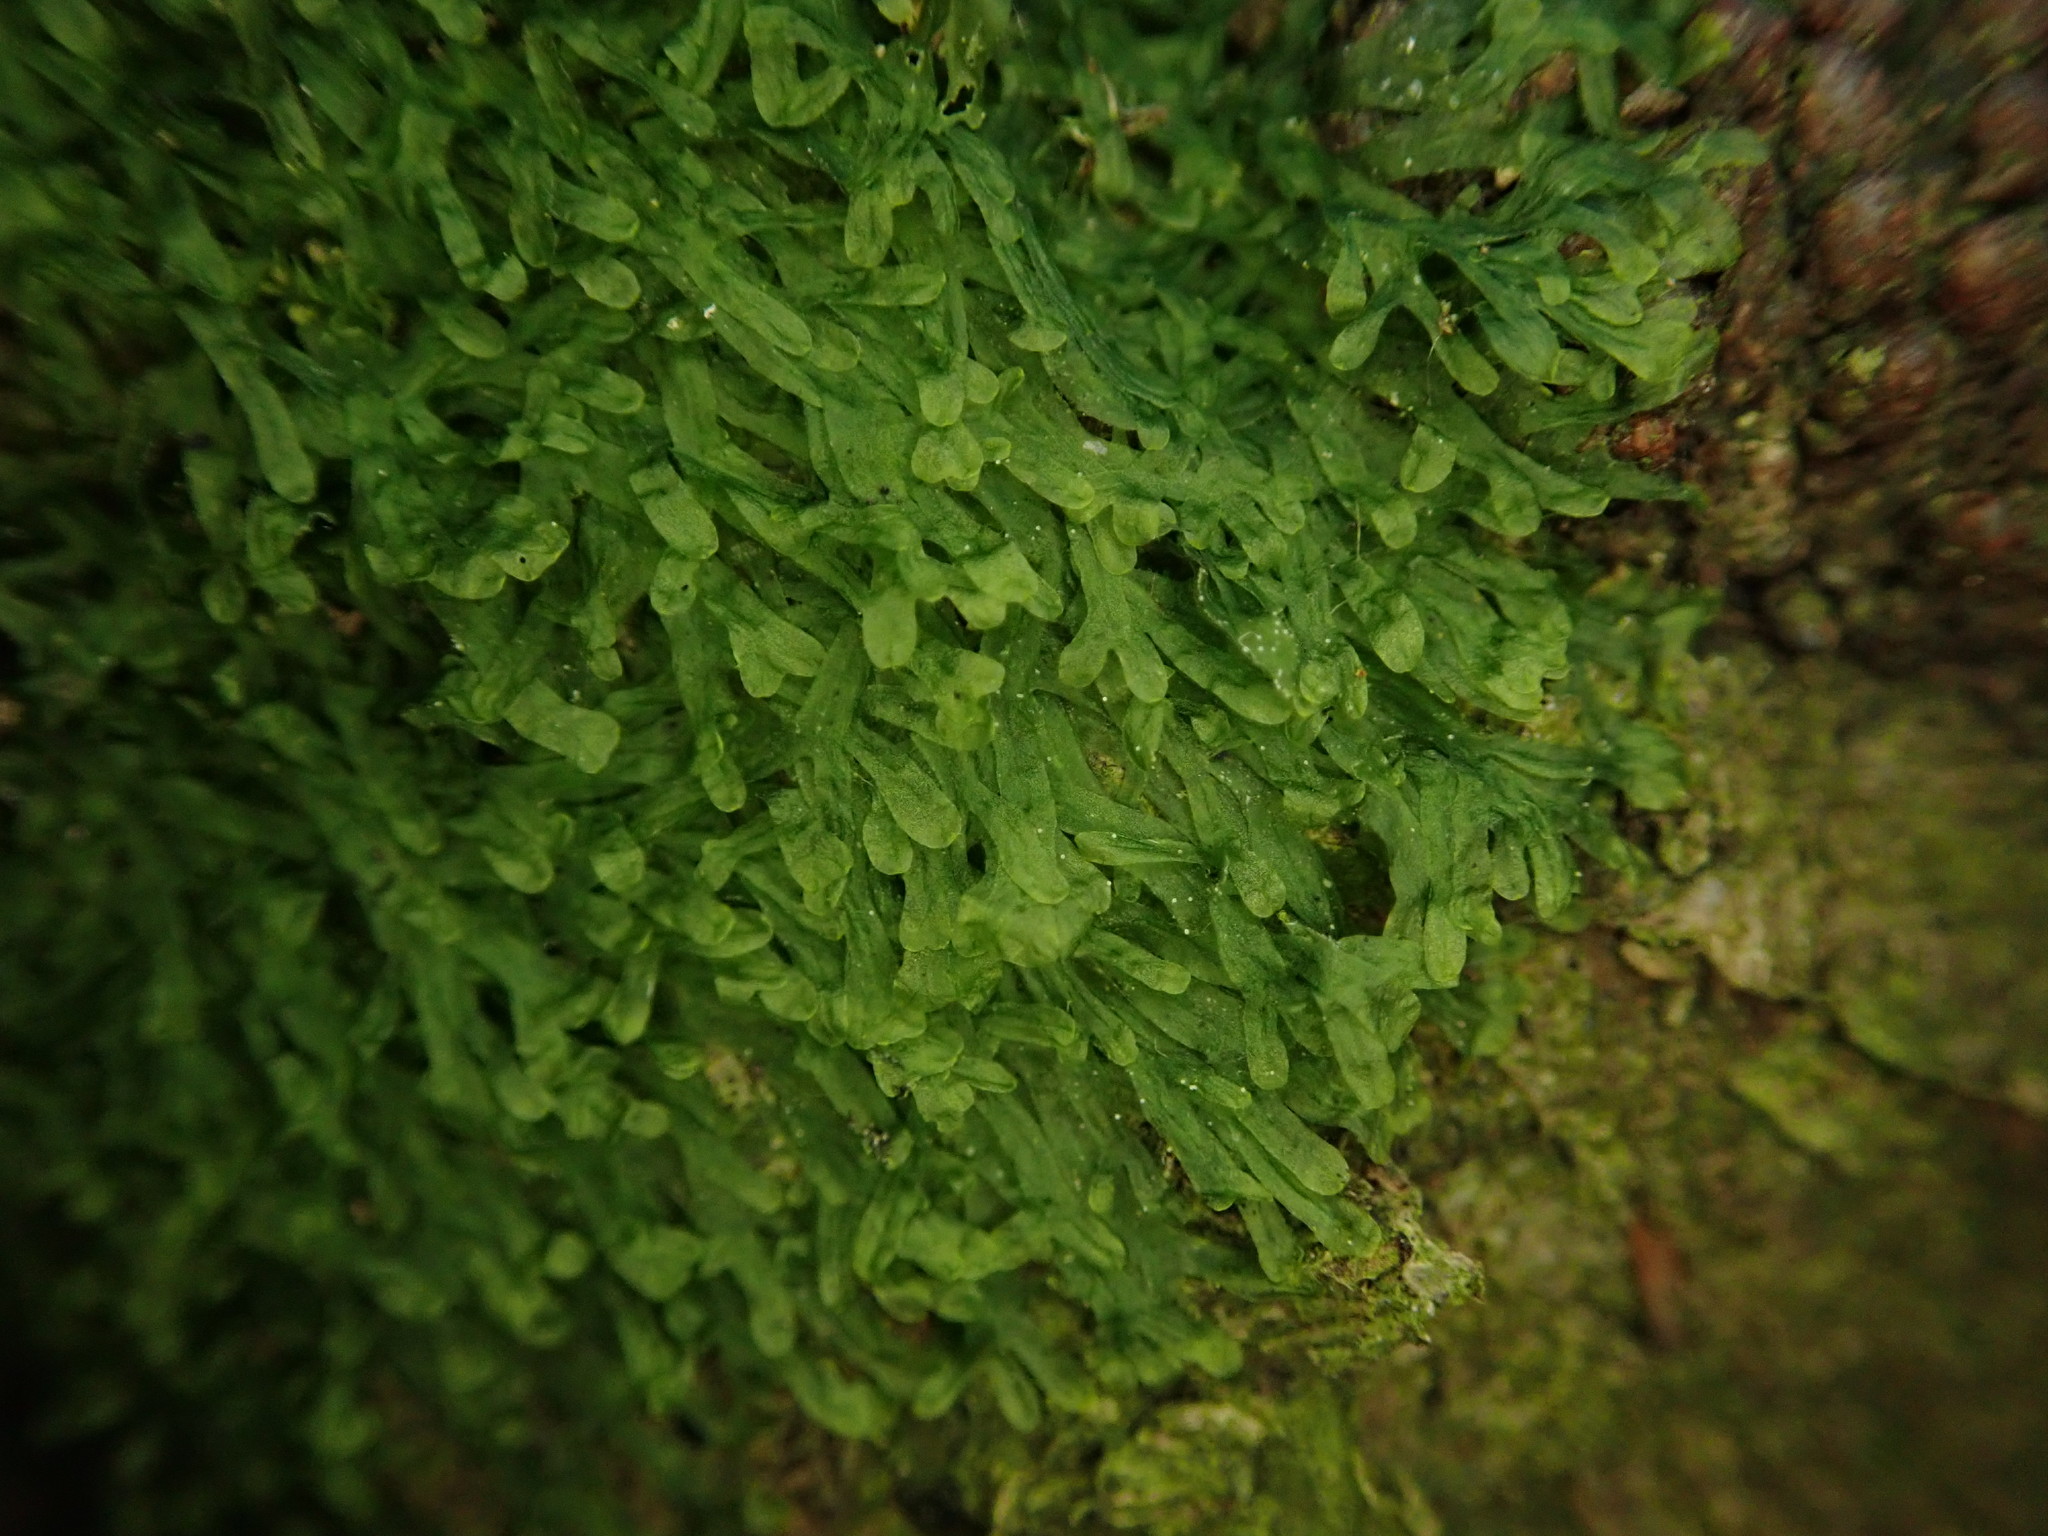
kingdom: Plantae
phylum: Marchantiophyta
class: Jungermanniopsida
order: Metzgeriales
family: Metzgeriaceae
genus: Metzgeria
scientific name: Metzgeria furcata
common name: Forked veilwort
